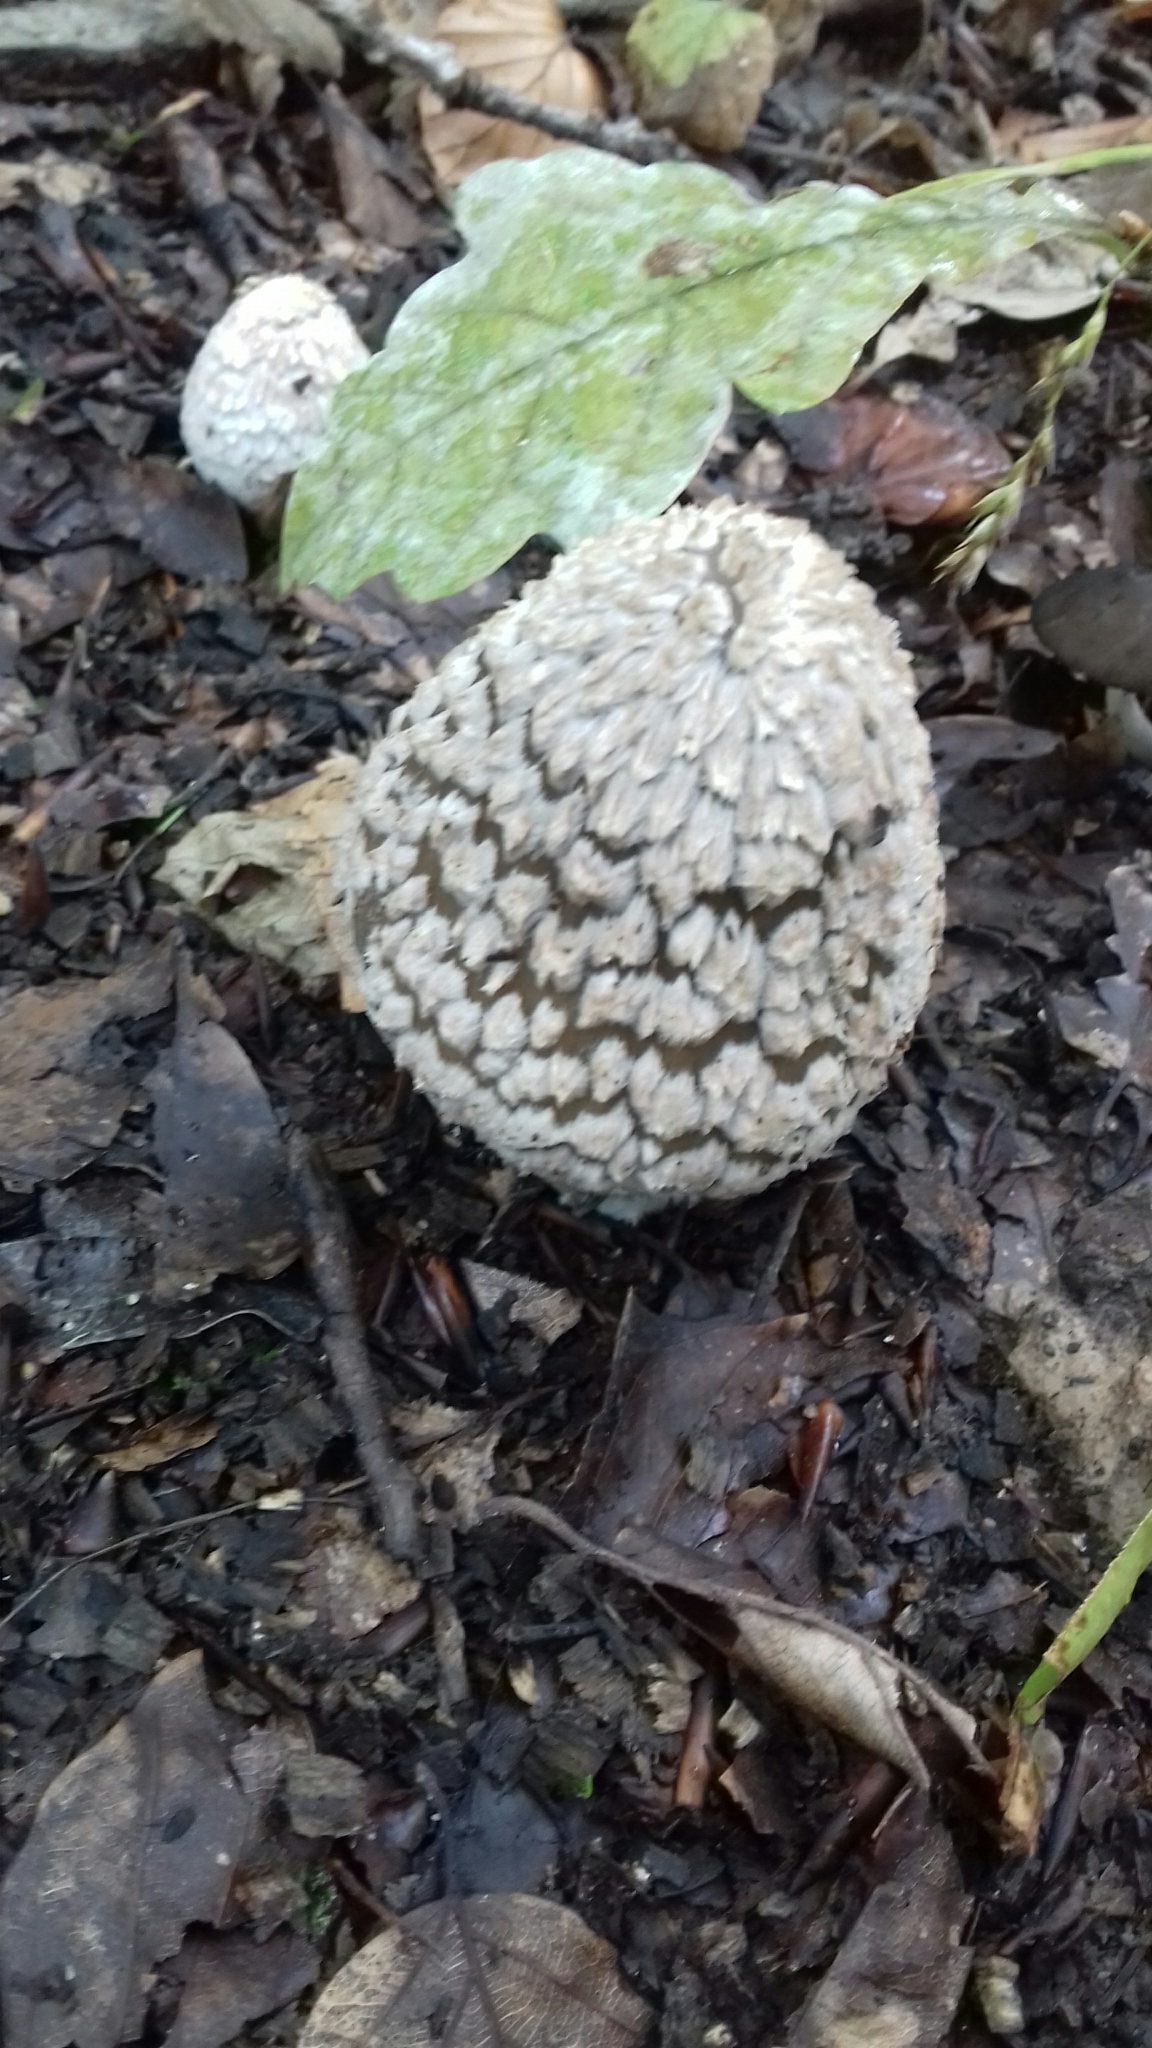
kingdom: Fungi
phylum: Basidiomycota
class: Agaricomycetes
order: Agaricales
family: Psathyrellaceae
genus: Coprinopsis
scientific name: Coprinopsis picacea
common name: Magpie inkcap
